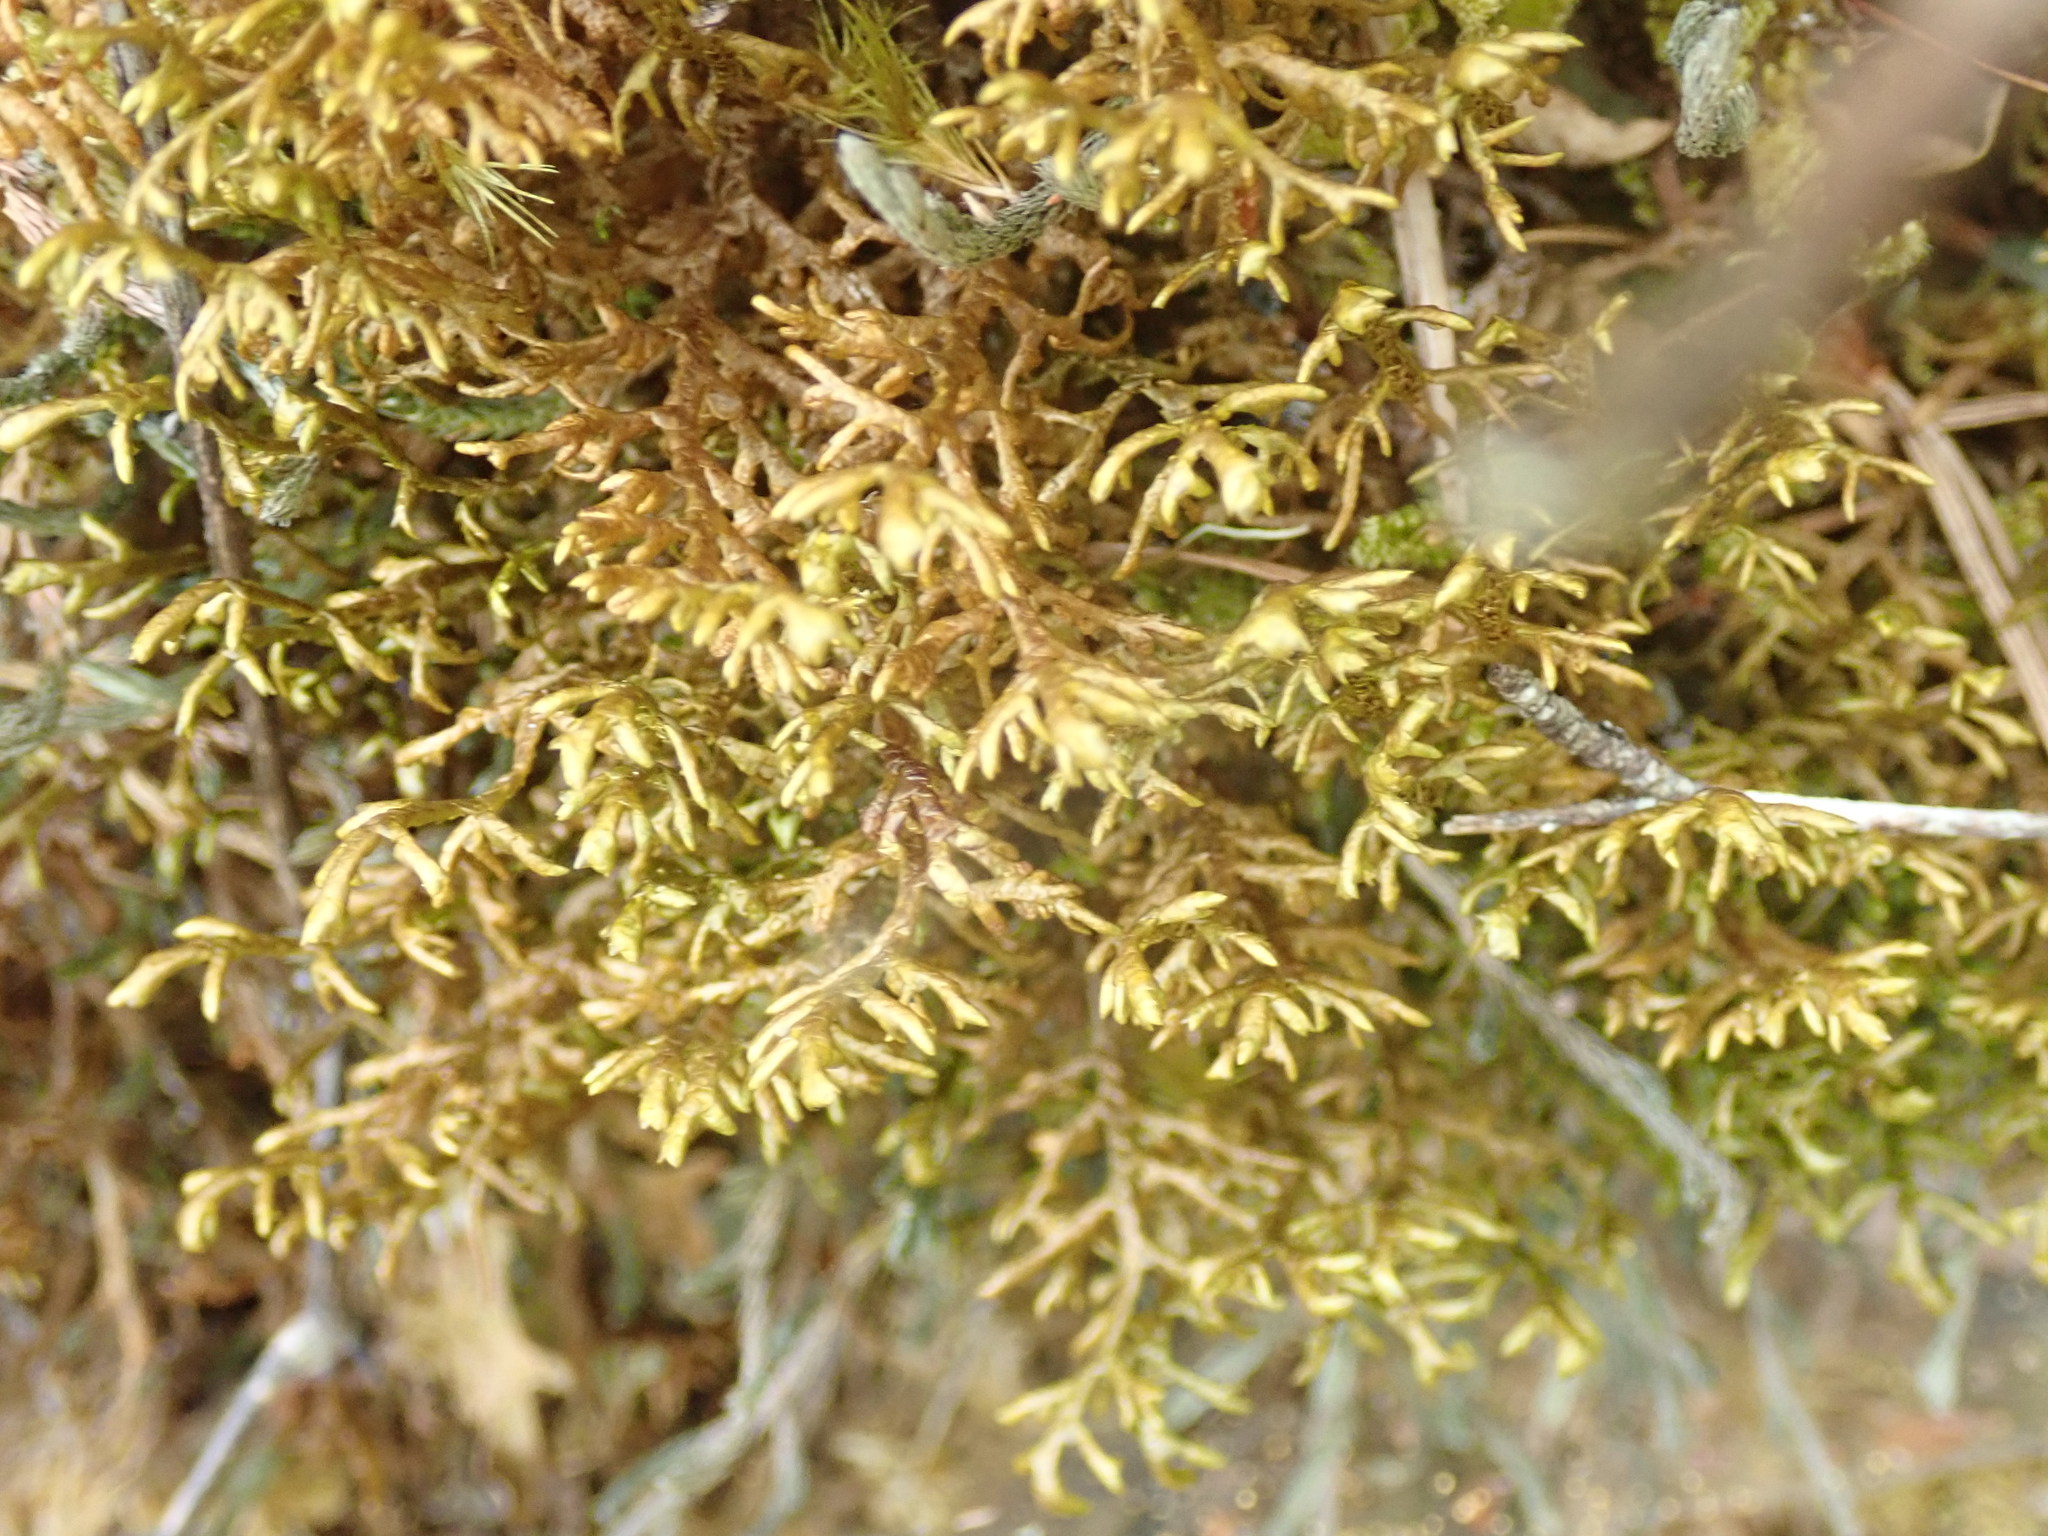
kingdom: Plantae
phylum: Marchantiophyta
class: Jungermanniopsida
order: Porellales
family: Porellaceae
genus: Porella
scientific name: Porella roellii
